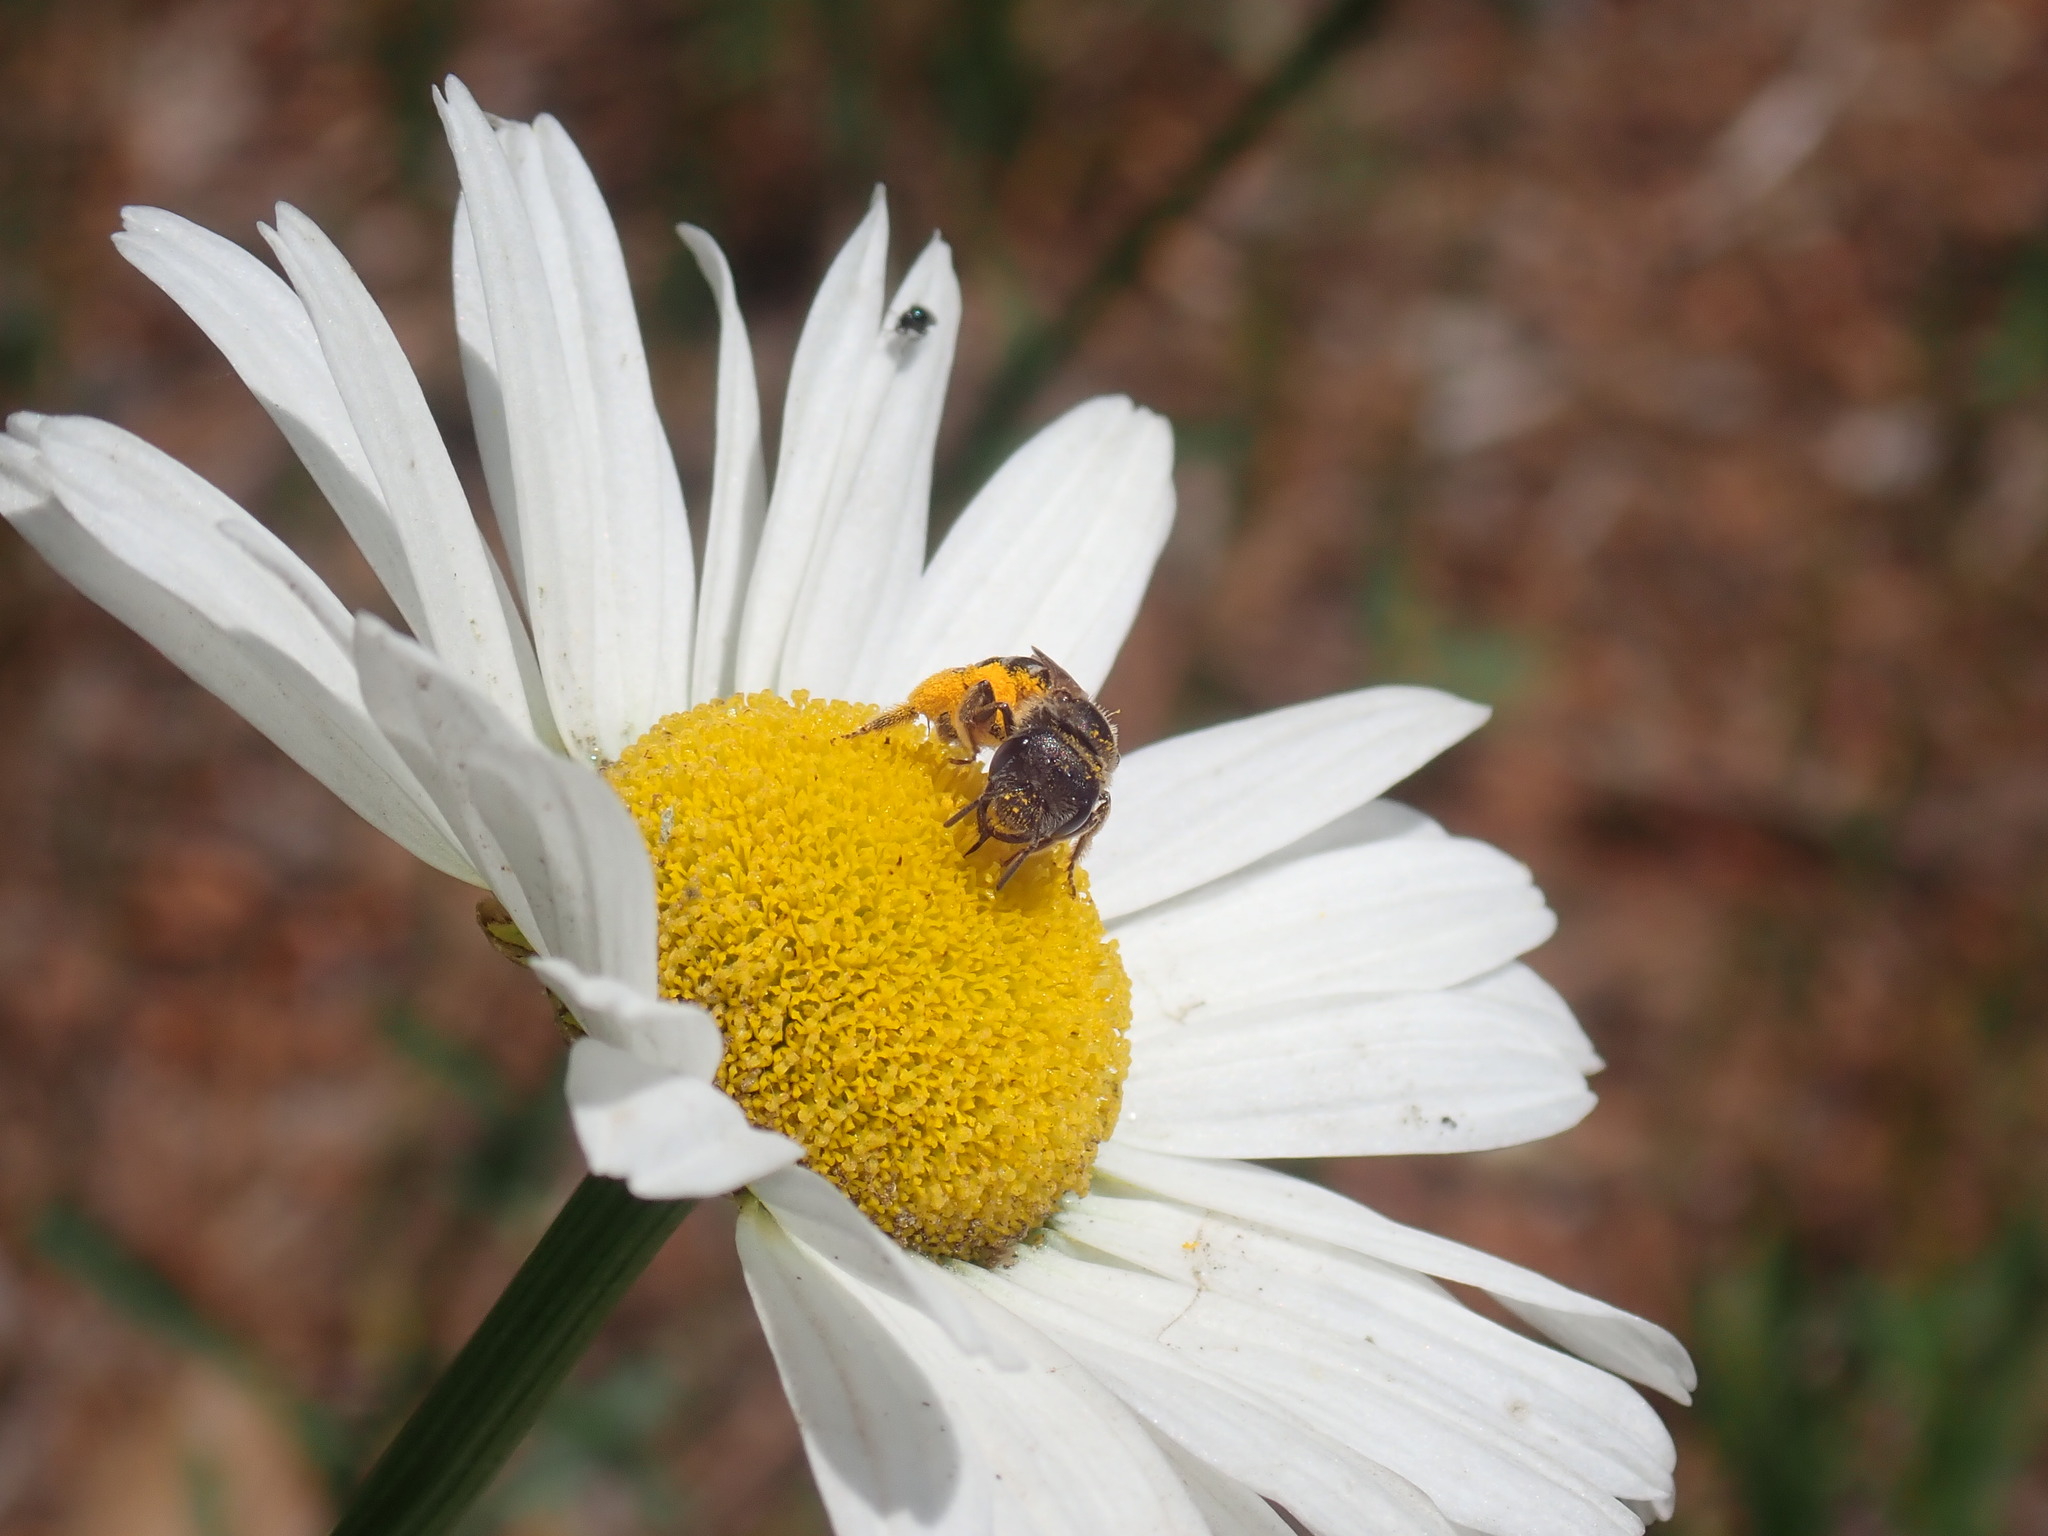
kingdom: Animalia
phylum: Arthropoda
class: Insecta
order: Hymenoptera
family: Halictidae
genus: Halictus
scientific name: Halictus ligatus
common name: Ligated furrow bee
